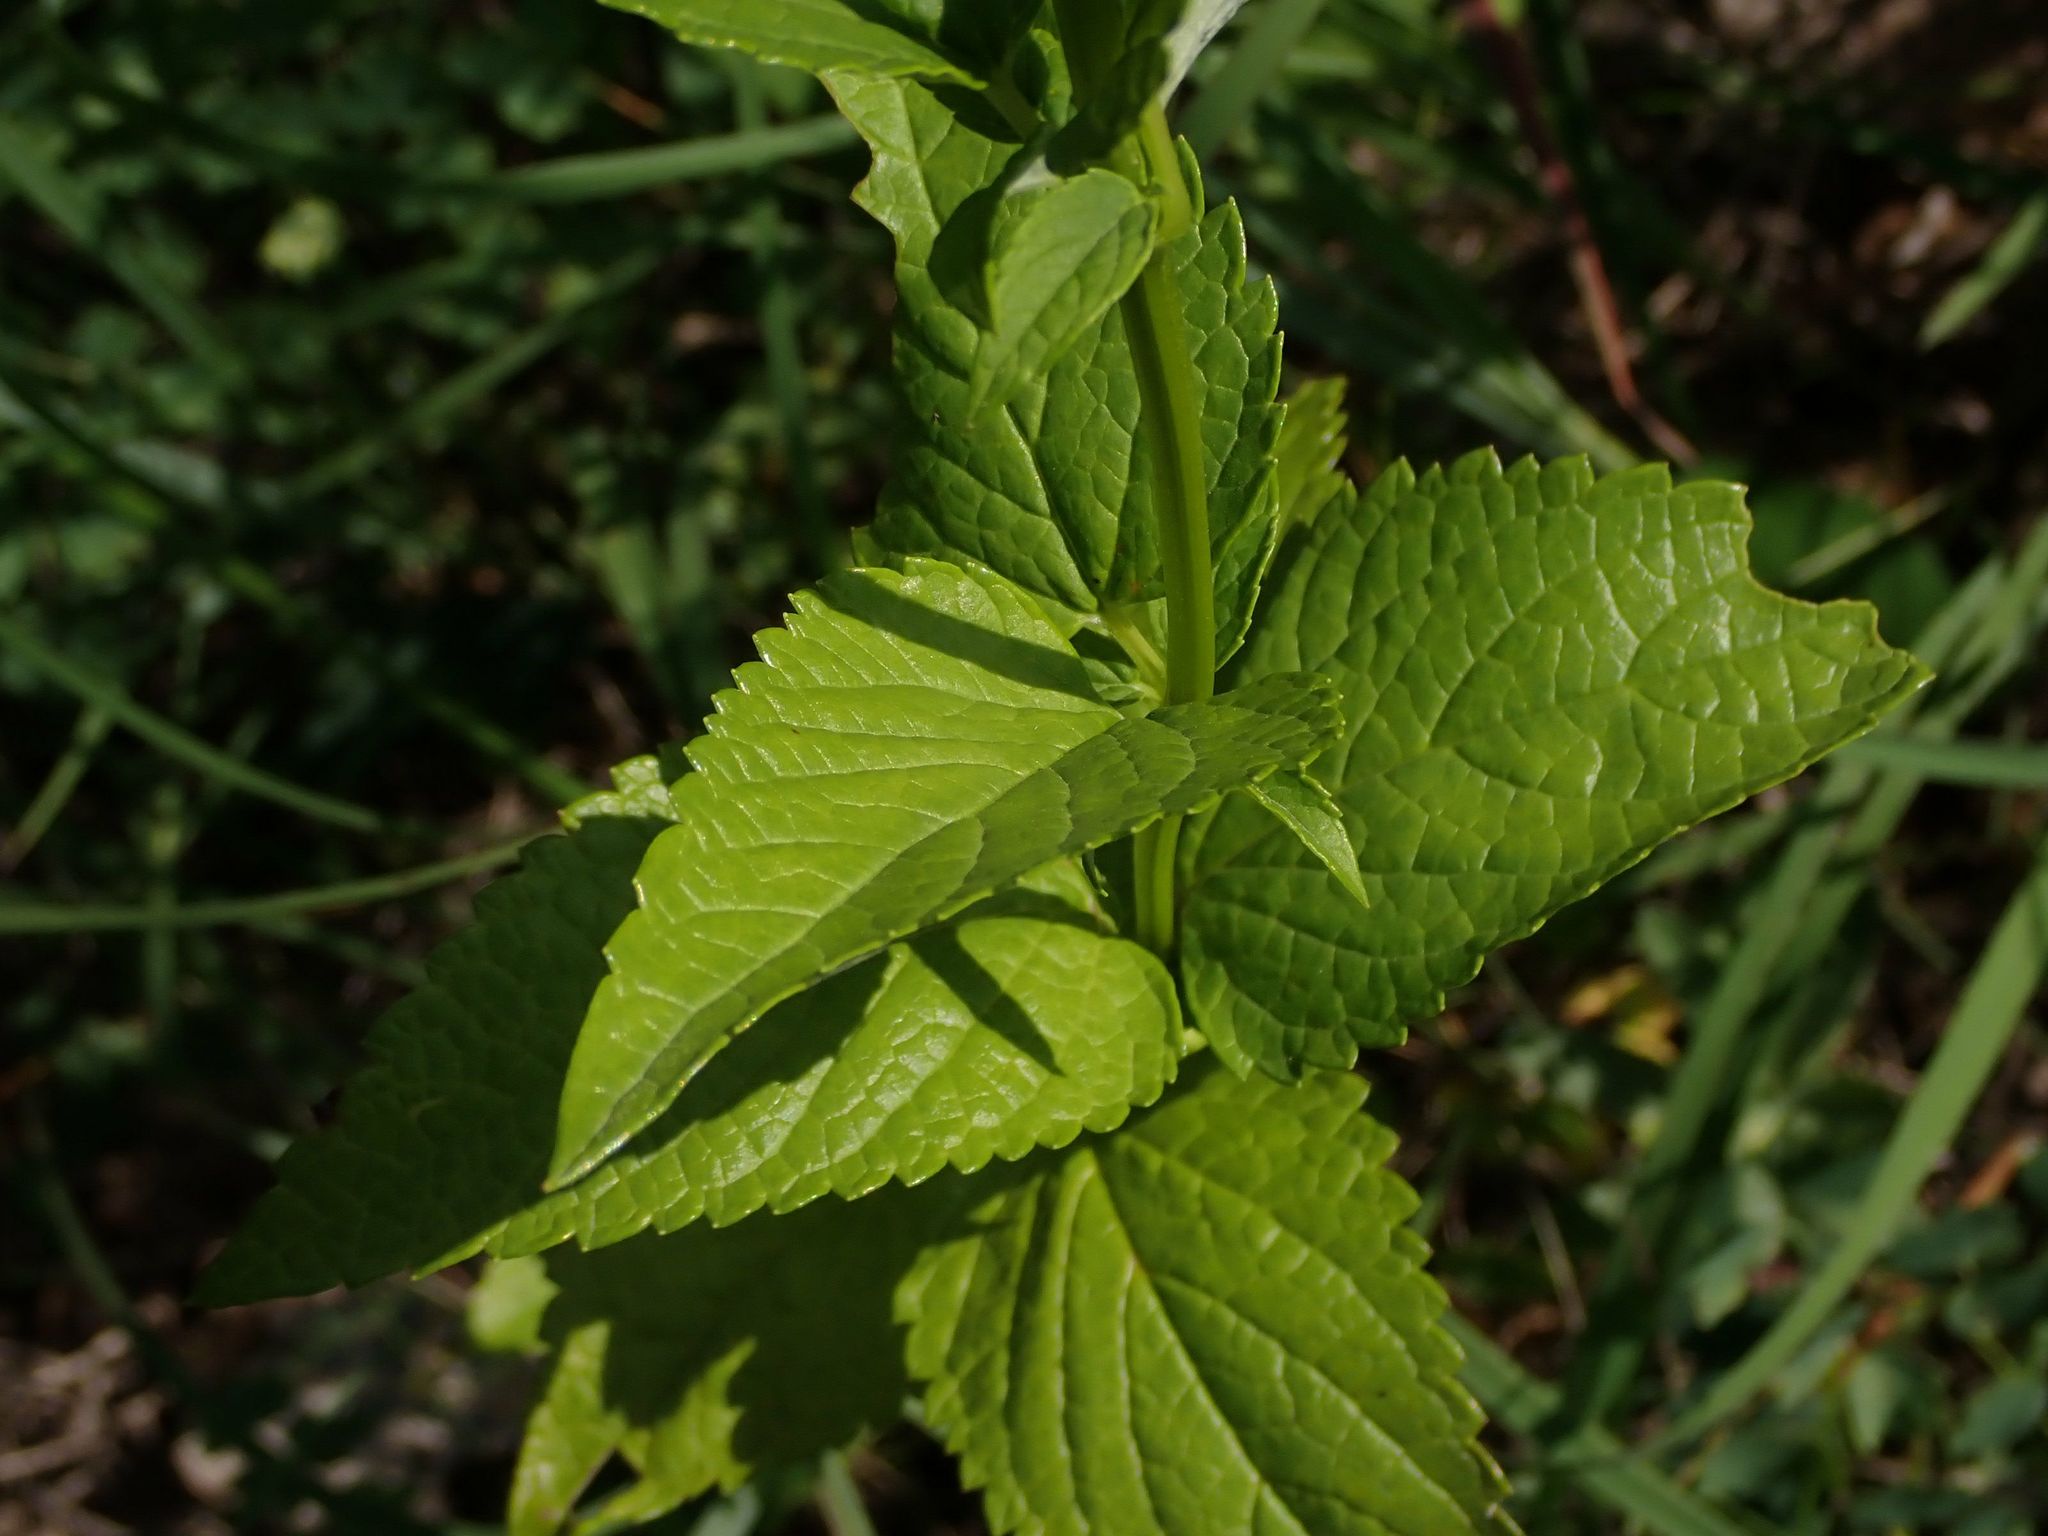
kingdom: Plantae
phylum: Tracheophyta
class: Magnoliopsida
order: Lamiales
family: Lamiaceae
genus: Agastache
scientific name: Agastache foeniculum
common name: Anise hyssop
